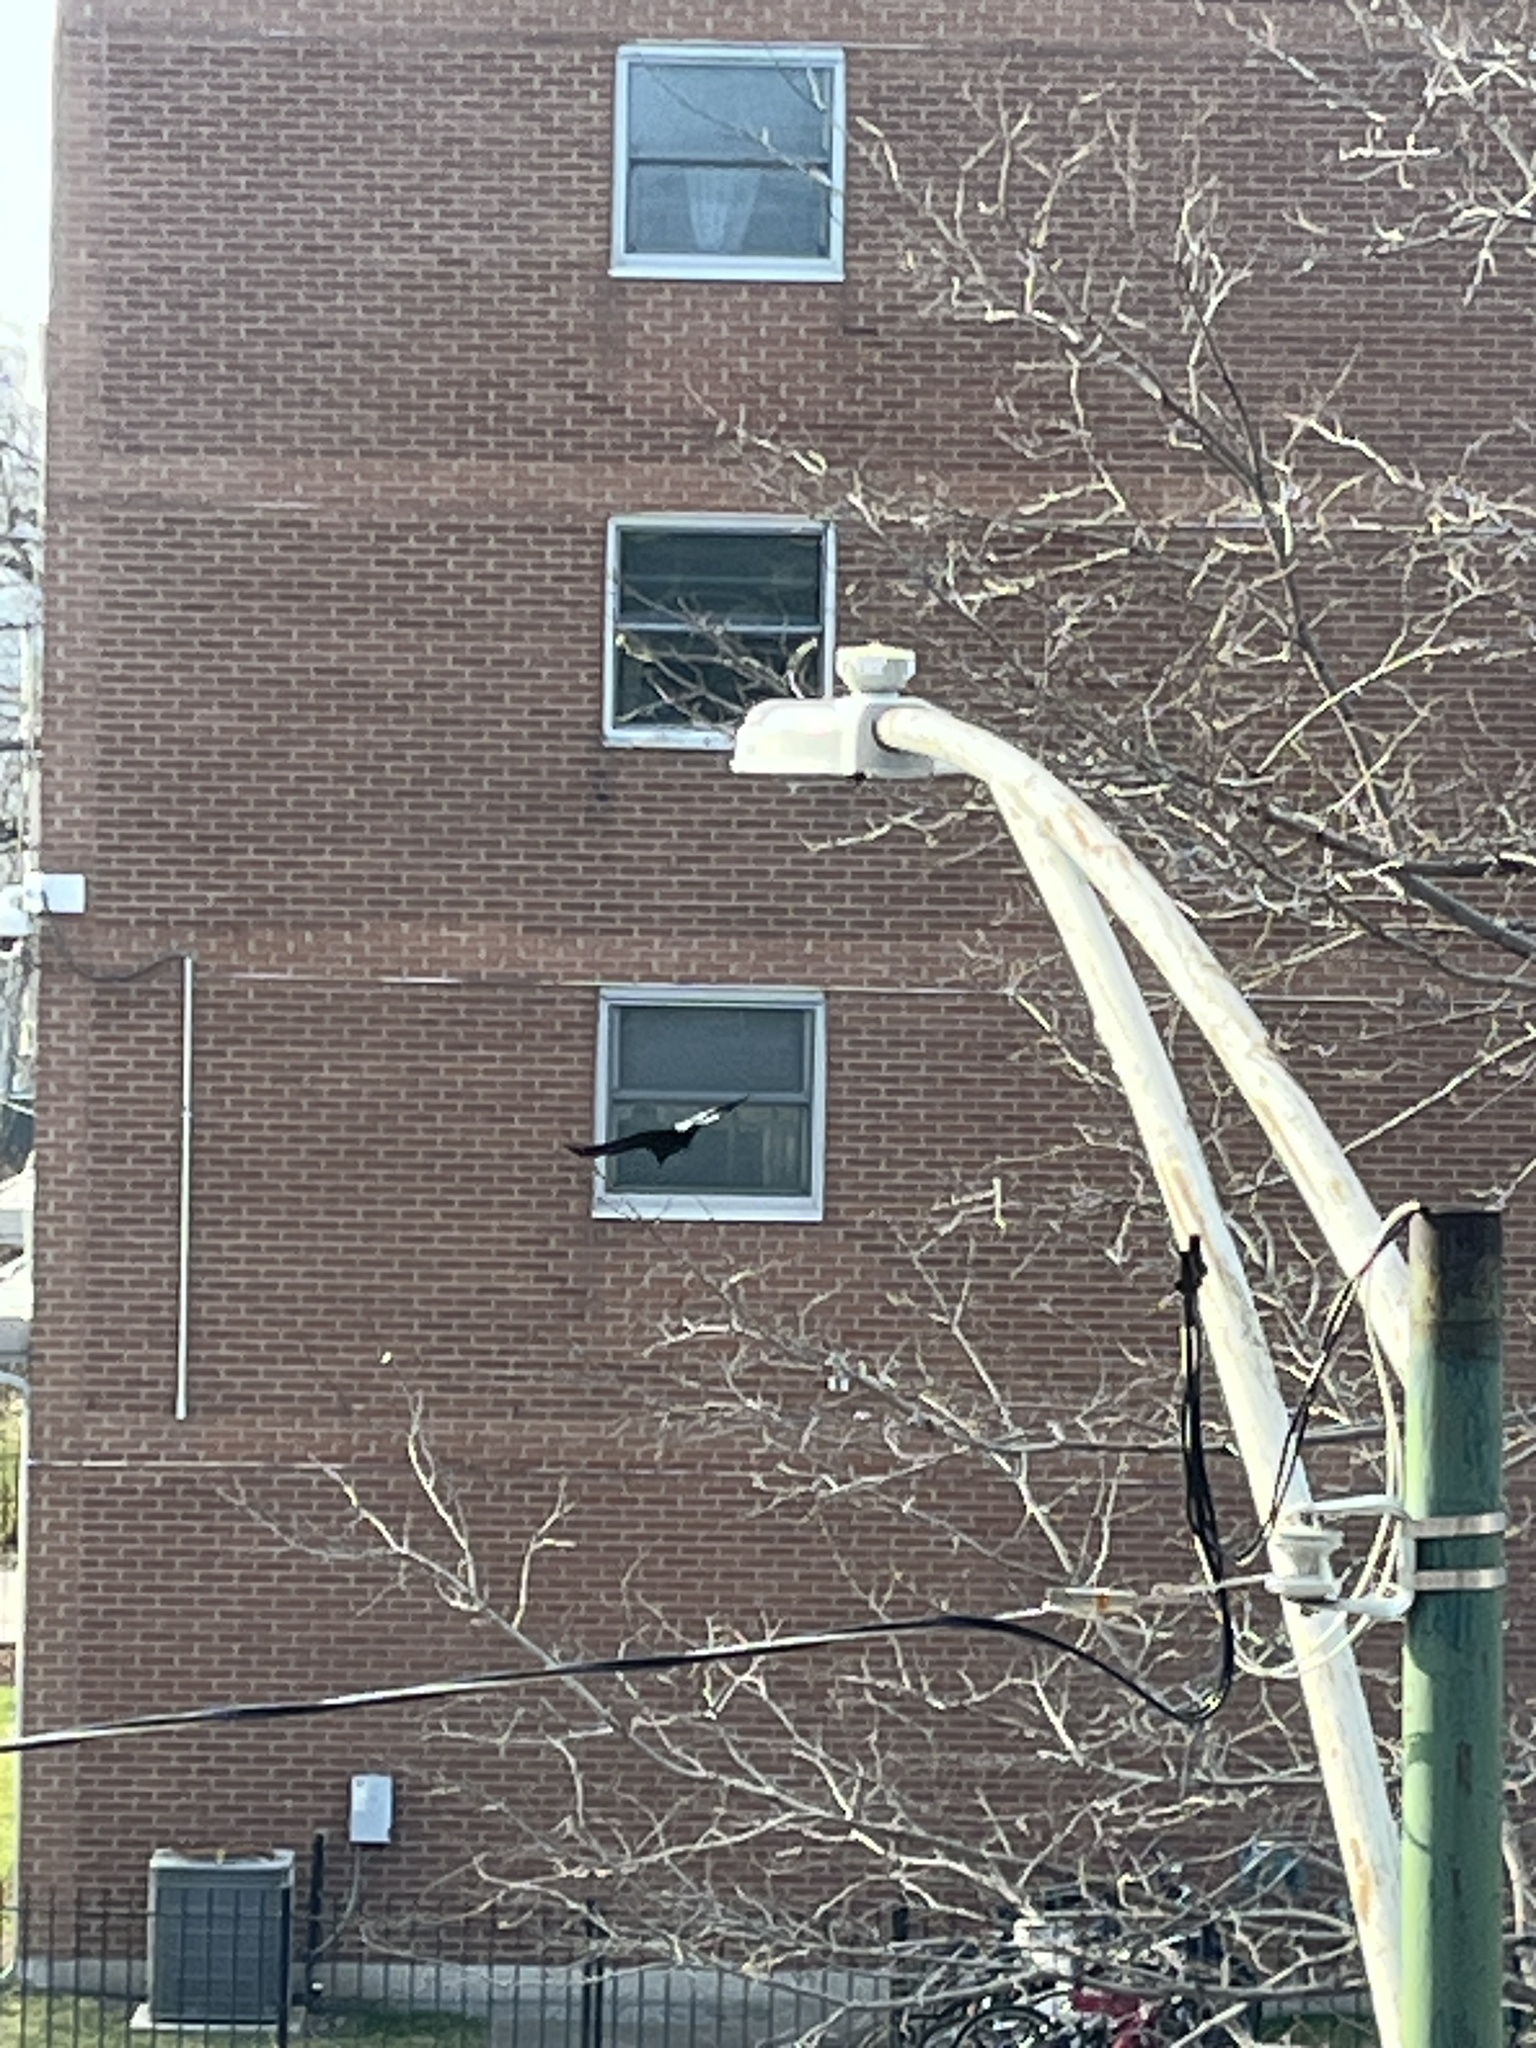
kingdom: Animalia
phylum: Chordata
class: Aves
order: Passeriformes
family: Corvidae
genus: Corvus
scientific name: Corvus brachyrhynchos
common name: American crow
